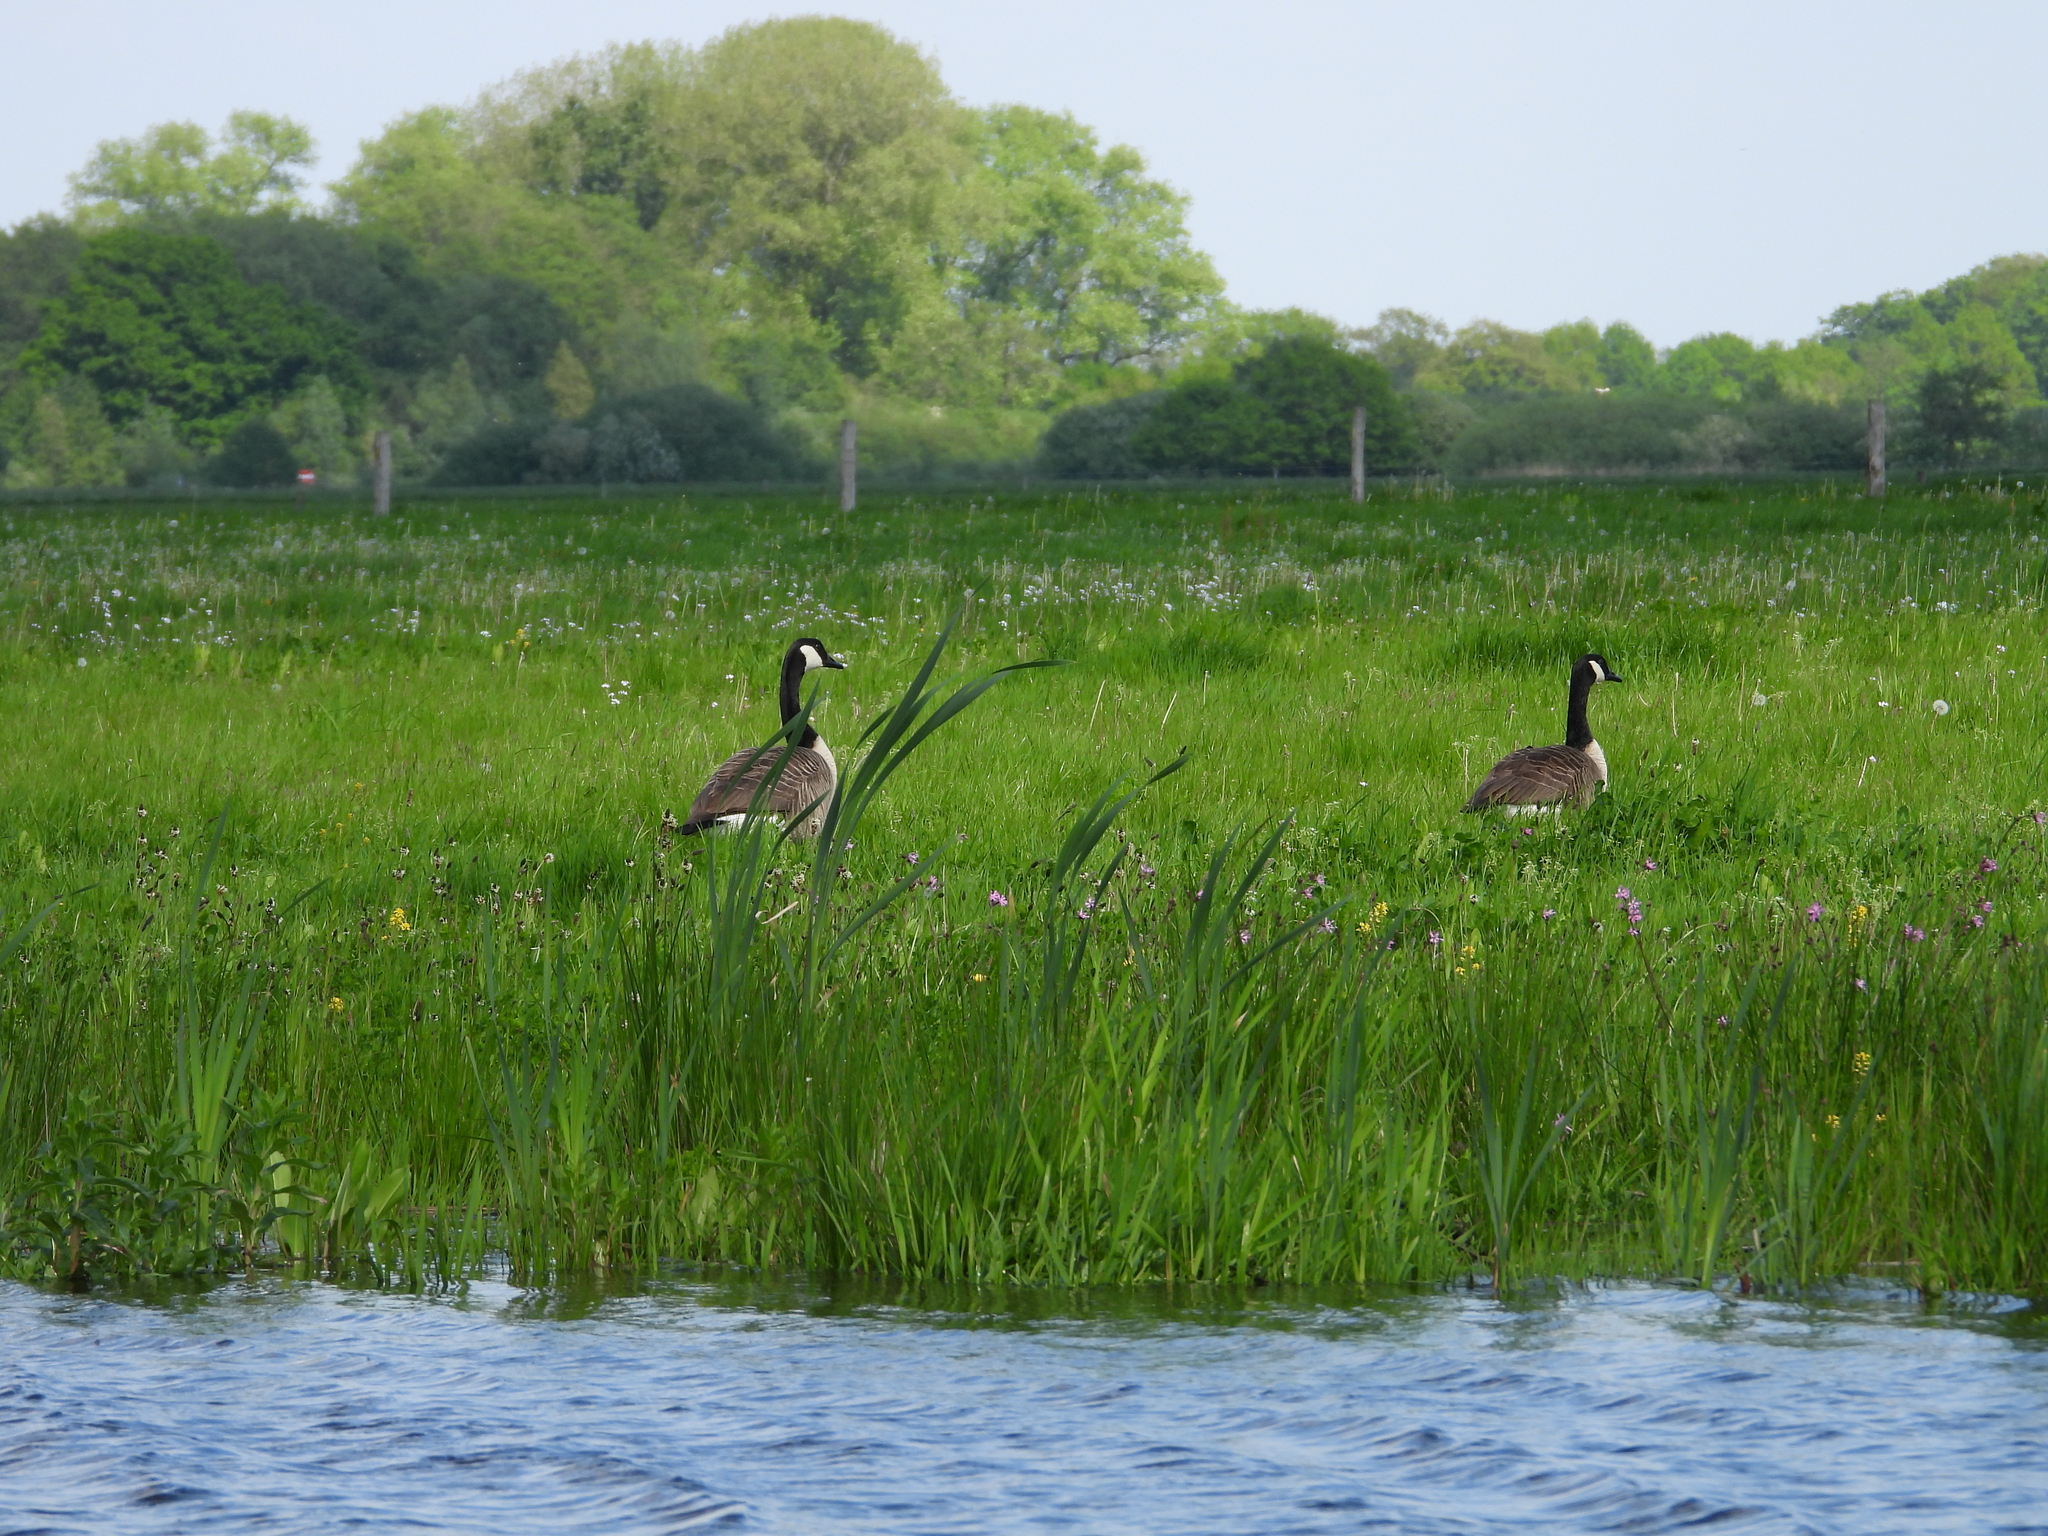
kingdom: Animalia
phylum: Chordata
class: Aves
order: Anseriformes
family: Anatidae
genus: Branta
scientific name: Branta canadensis
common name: Canada goose
